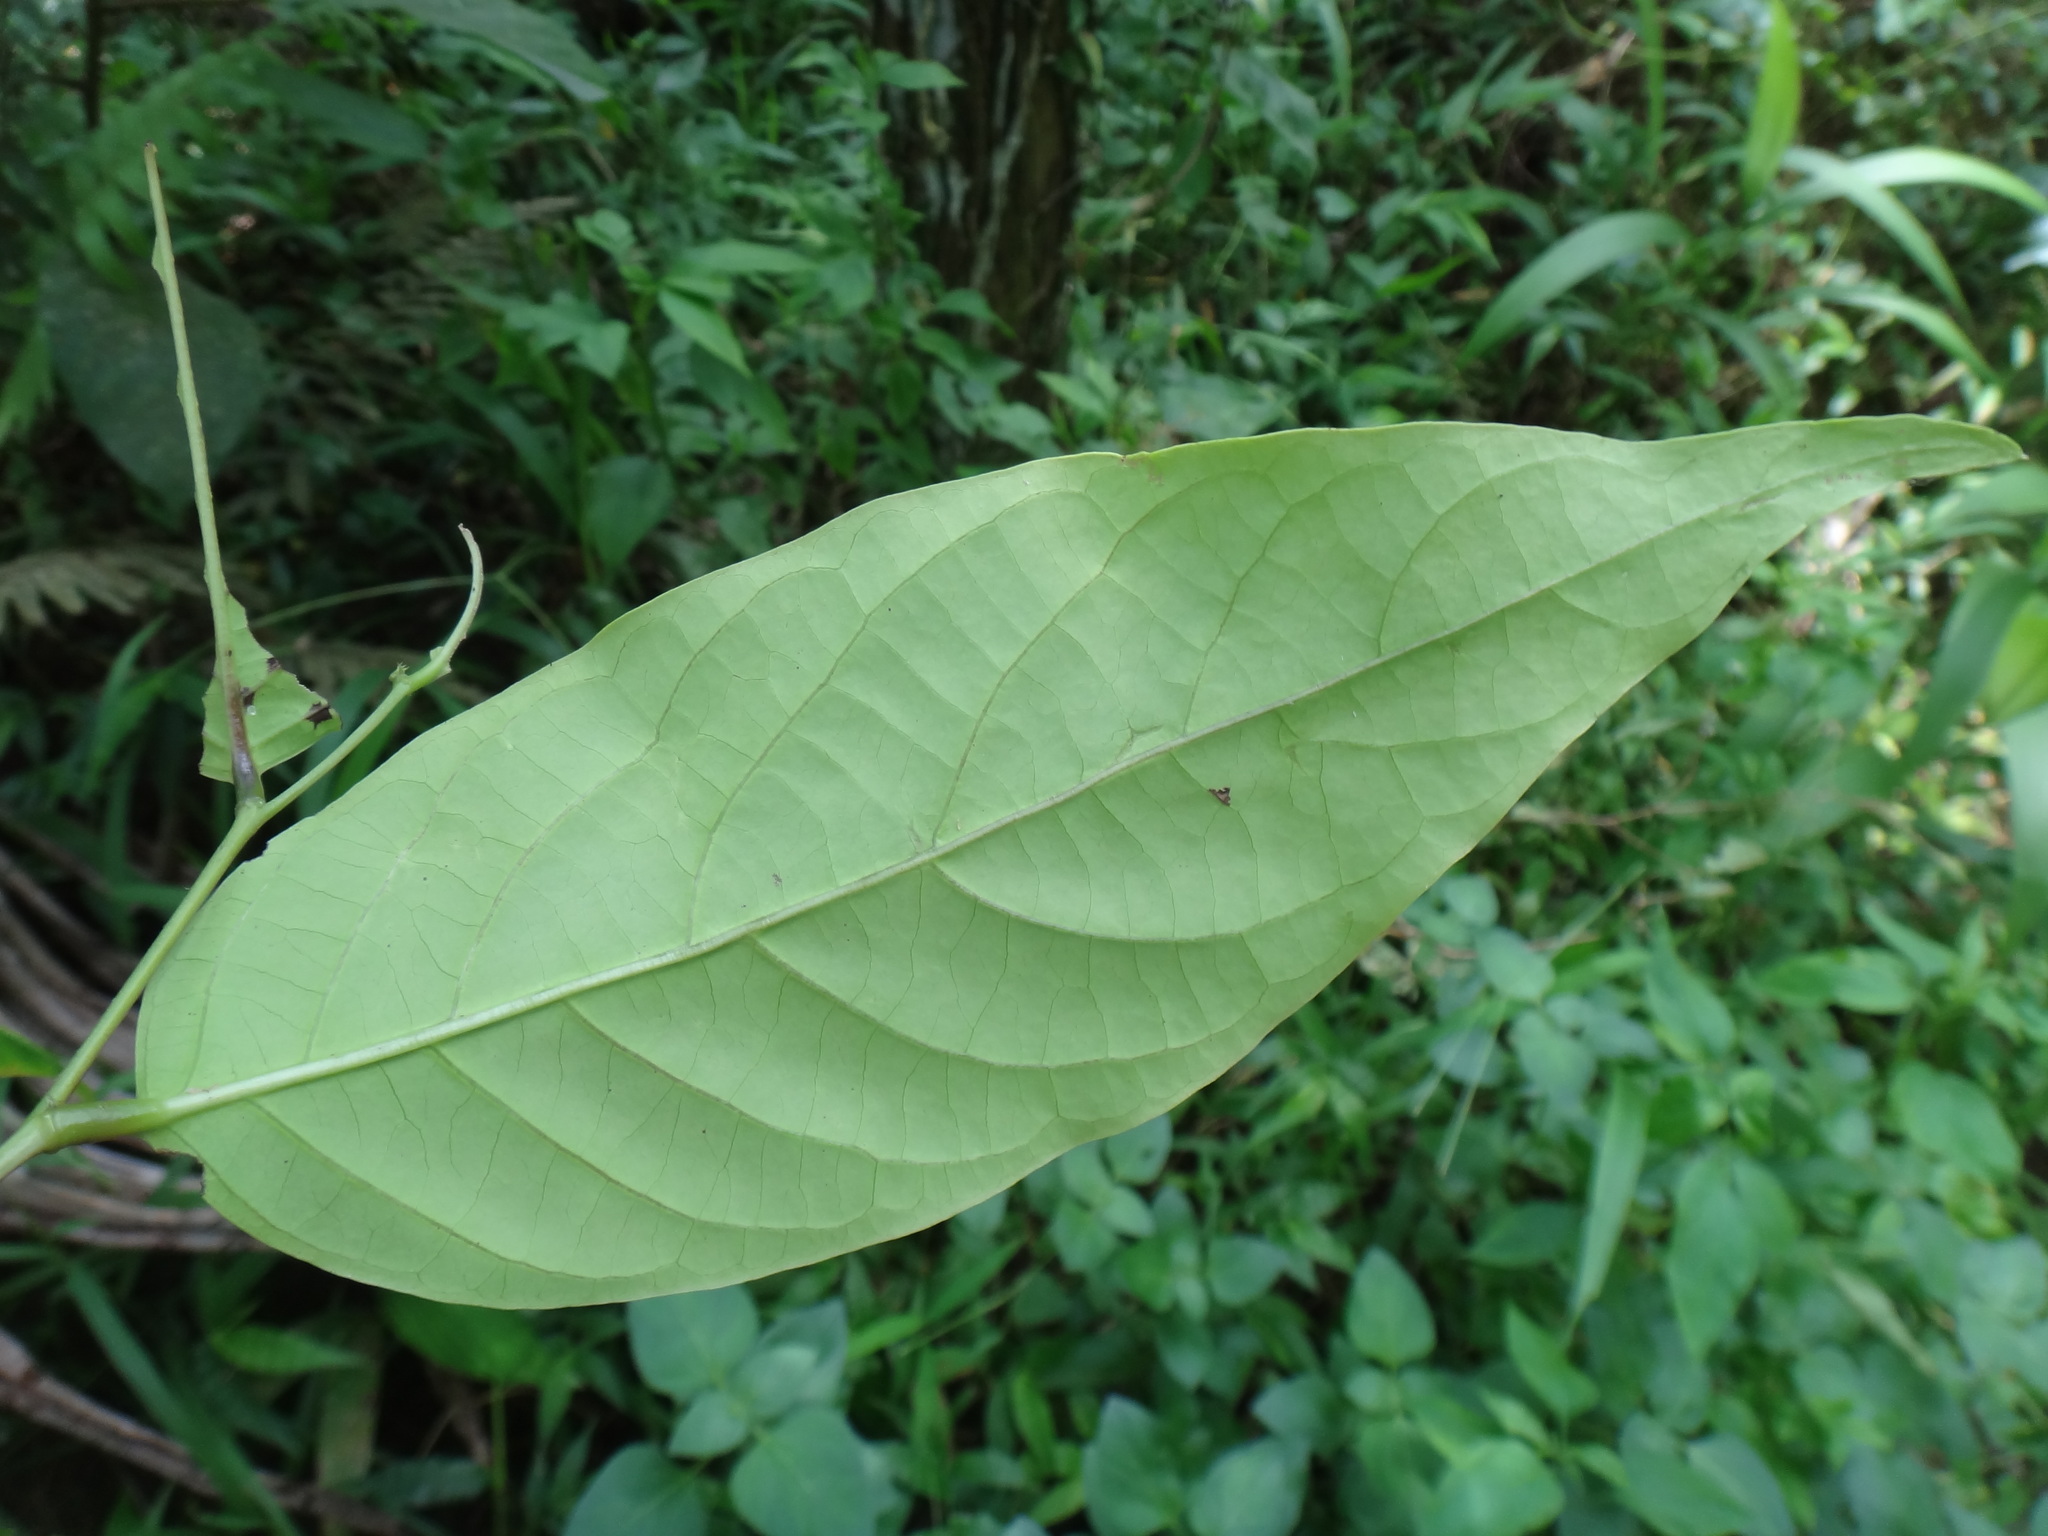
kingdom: Plantae
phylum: Tracheophyta
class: Magnoliopsida
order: Malpighiales
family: Phyllanthaceae
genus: Glochidion
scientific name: Glochidion zeylanicum
